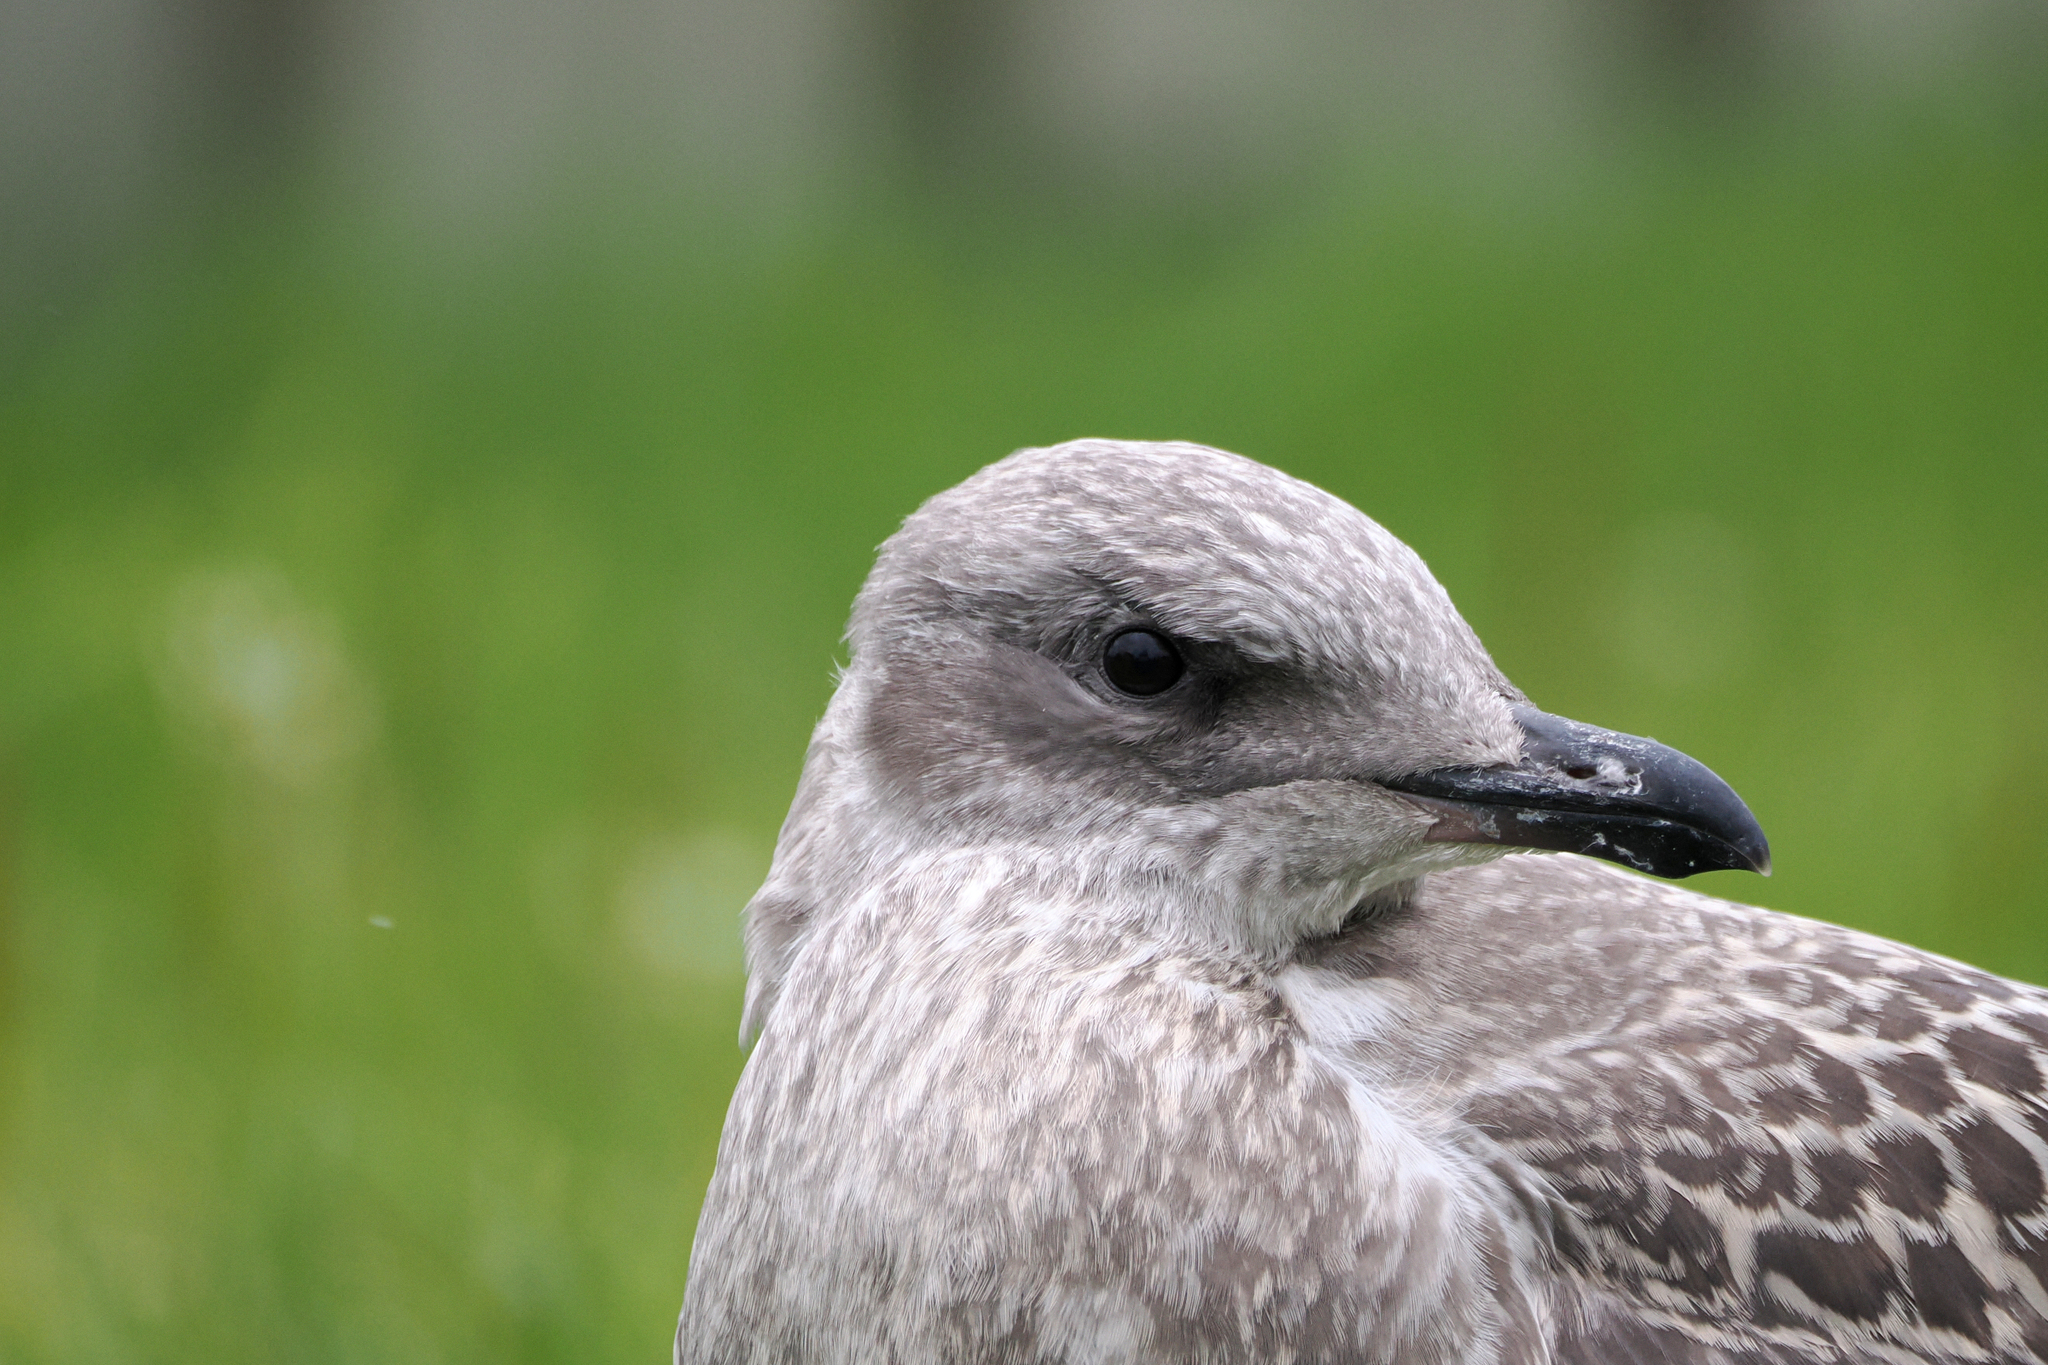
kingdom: Animalia
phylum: Chordata
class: Aves
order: Charadriiformes
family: Laridae
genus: Larus
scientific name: Larus argentatus
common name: Herring gull
